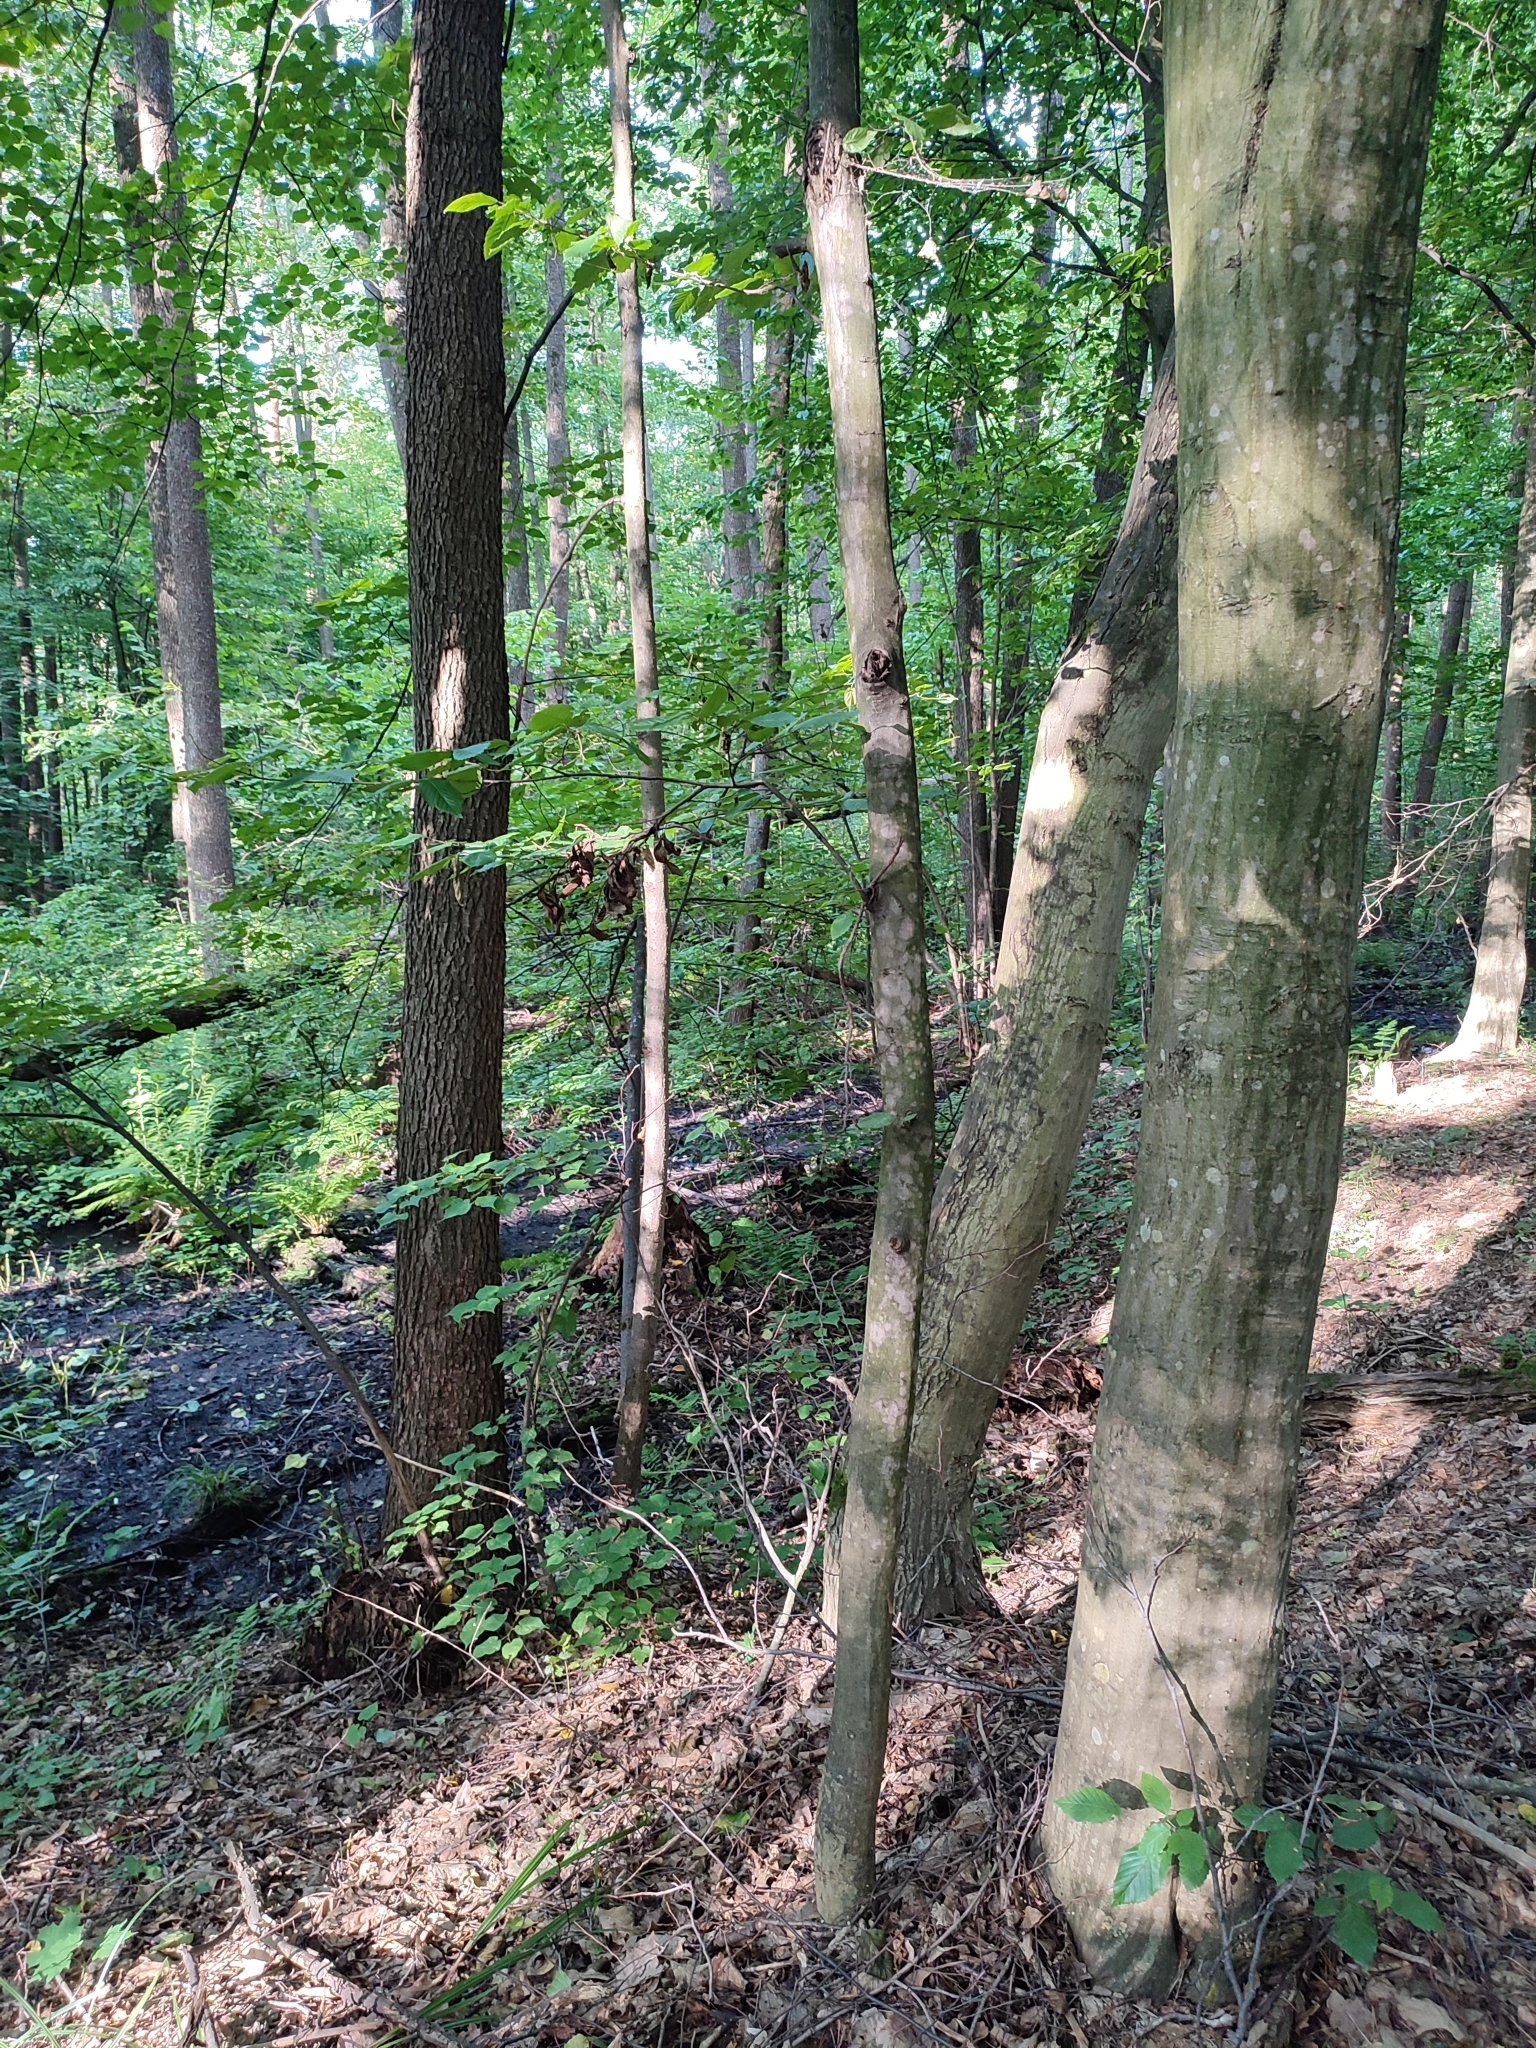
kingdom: Plantae
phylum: Tracheophyta
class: Magnoliopsida
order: Fagales
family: Betulaceae
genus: Carpinus
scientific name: Carpinus betulus
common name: Hornbeam
